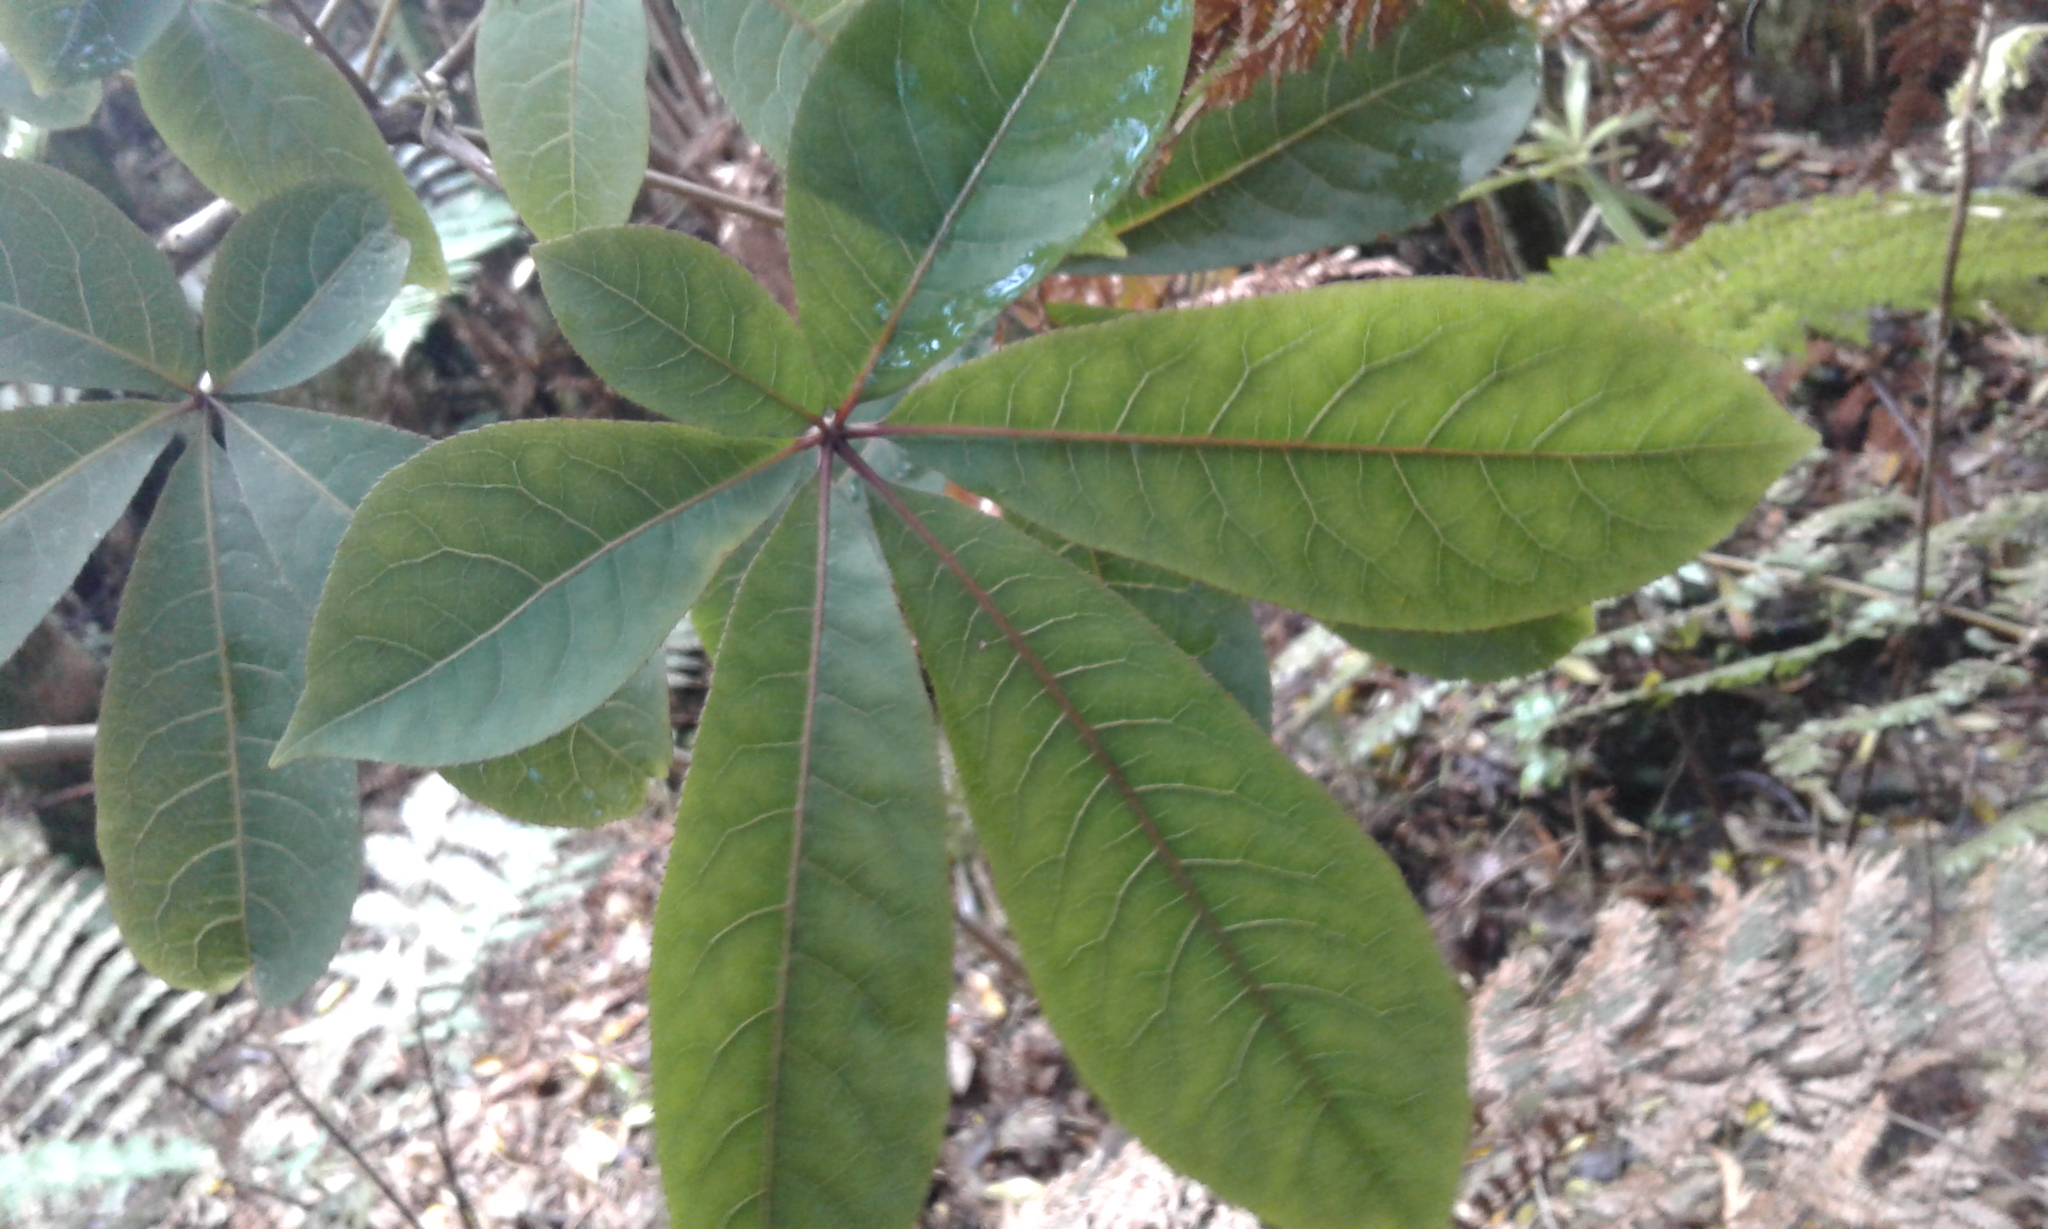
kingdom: Plantae
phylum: Tracheophyta
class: Magnoliopsida
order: Apiales
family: Araliaceae
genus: Schefflera
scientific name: Schefflera digitata
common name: Pate
